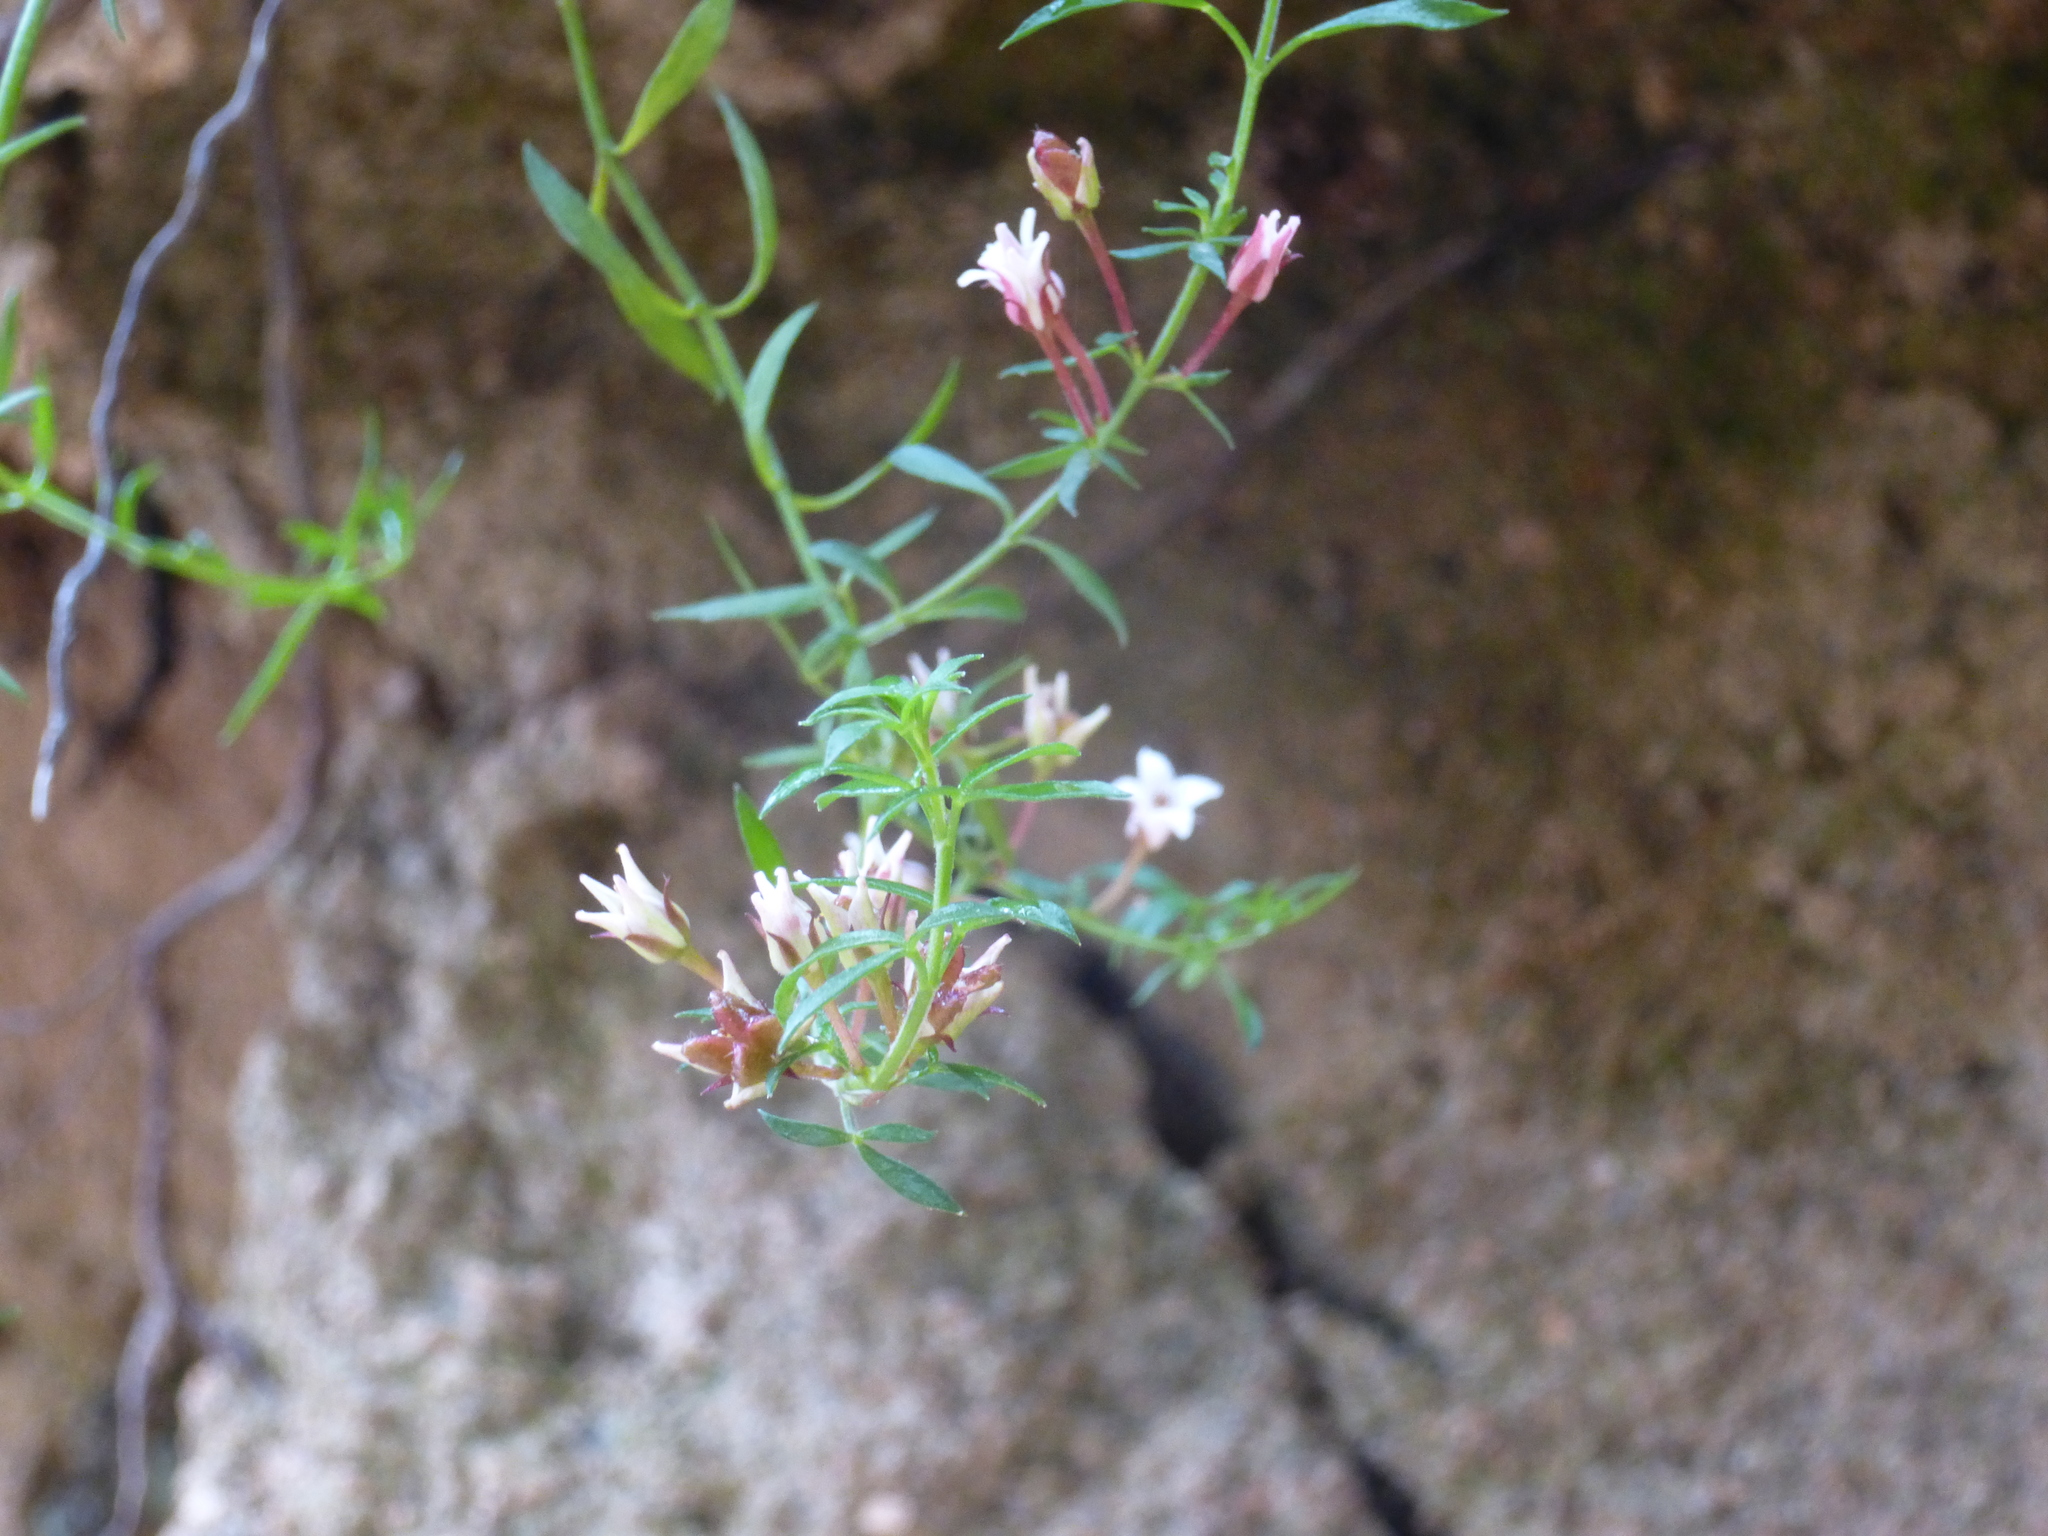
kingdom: Plantae
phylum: Tracheophyta
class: Magnoliopsida
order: Sapindales
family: Rutaceae
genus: Cyanothamnus
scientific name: Cyanothamnus nanus
